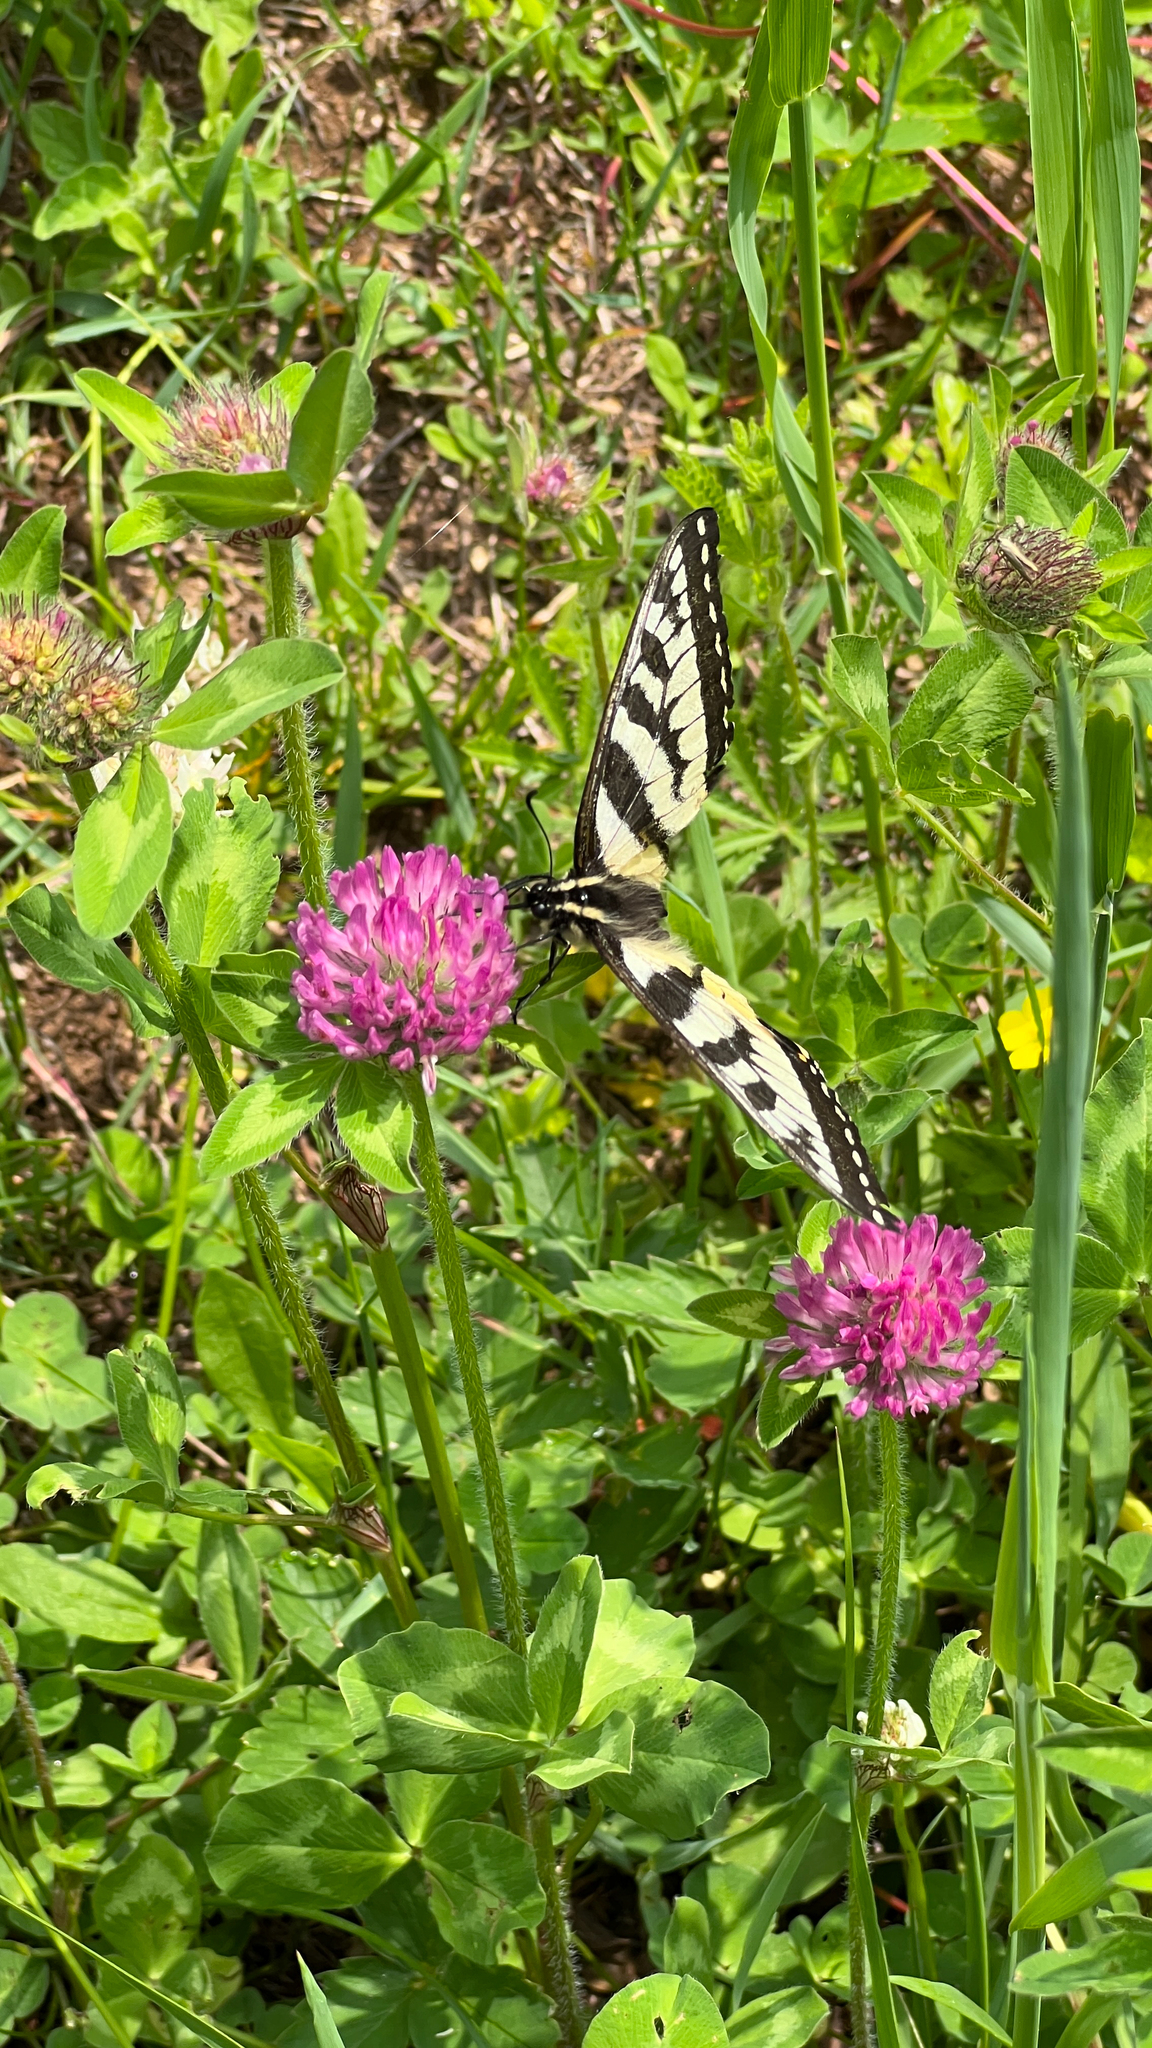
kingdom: Plantae
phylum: Tracheophyta
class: Magnoliopsida
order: Fabales
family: Fabaceae
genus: Trifolium
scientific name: Trifolium pratense
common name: Red clover
